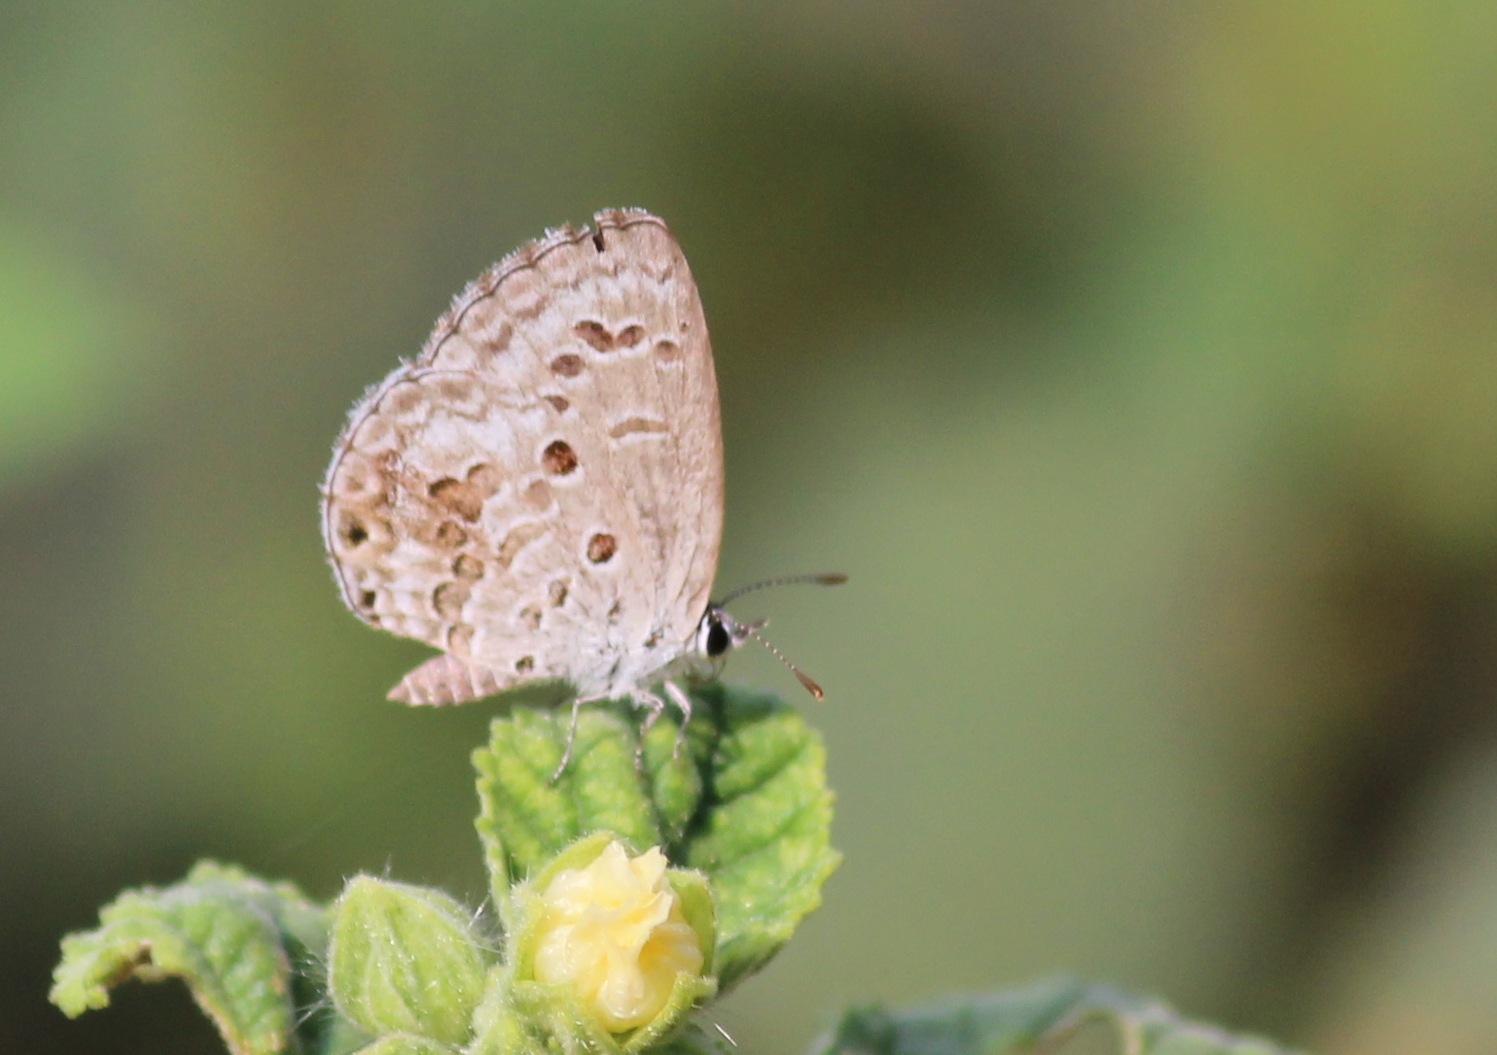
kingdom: Animalia
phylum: Arthropoda
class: Insecta
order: Lepidoptera
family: Lycaenidae
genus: Chilades
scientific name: Chilades laius
